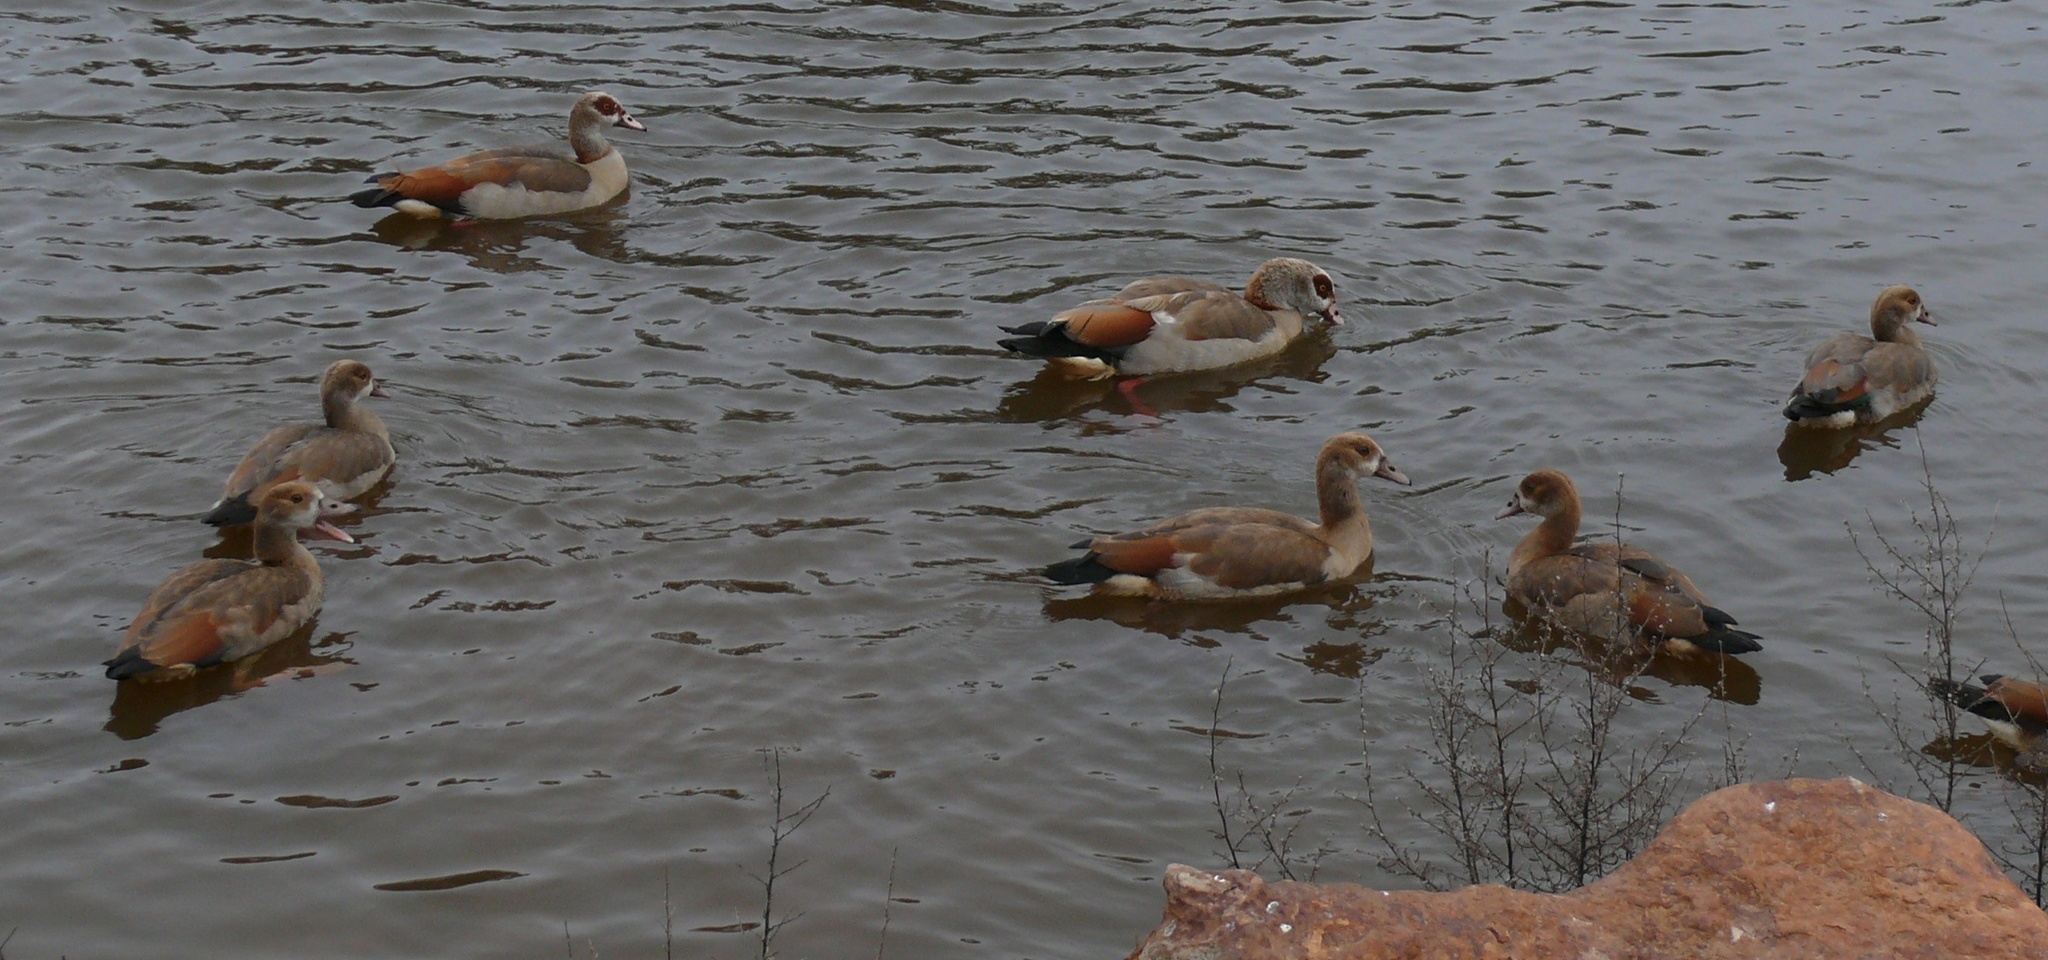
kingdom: Animalia
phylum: Chordata
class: Aves
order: Anseriformes
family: Anatidae
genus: Alopochen
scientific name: Alopochen aegyptiaca
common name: Egyptian goose
